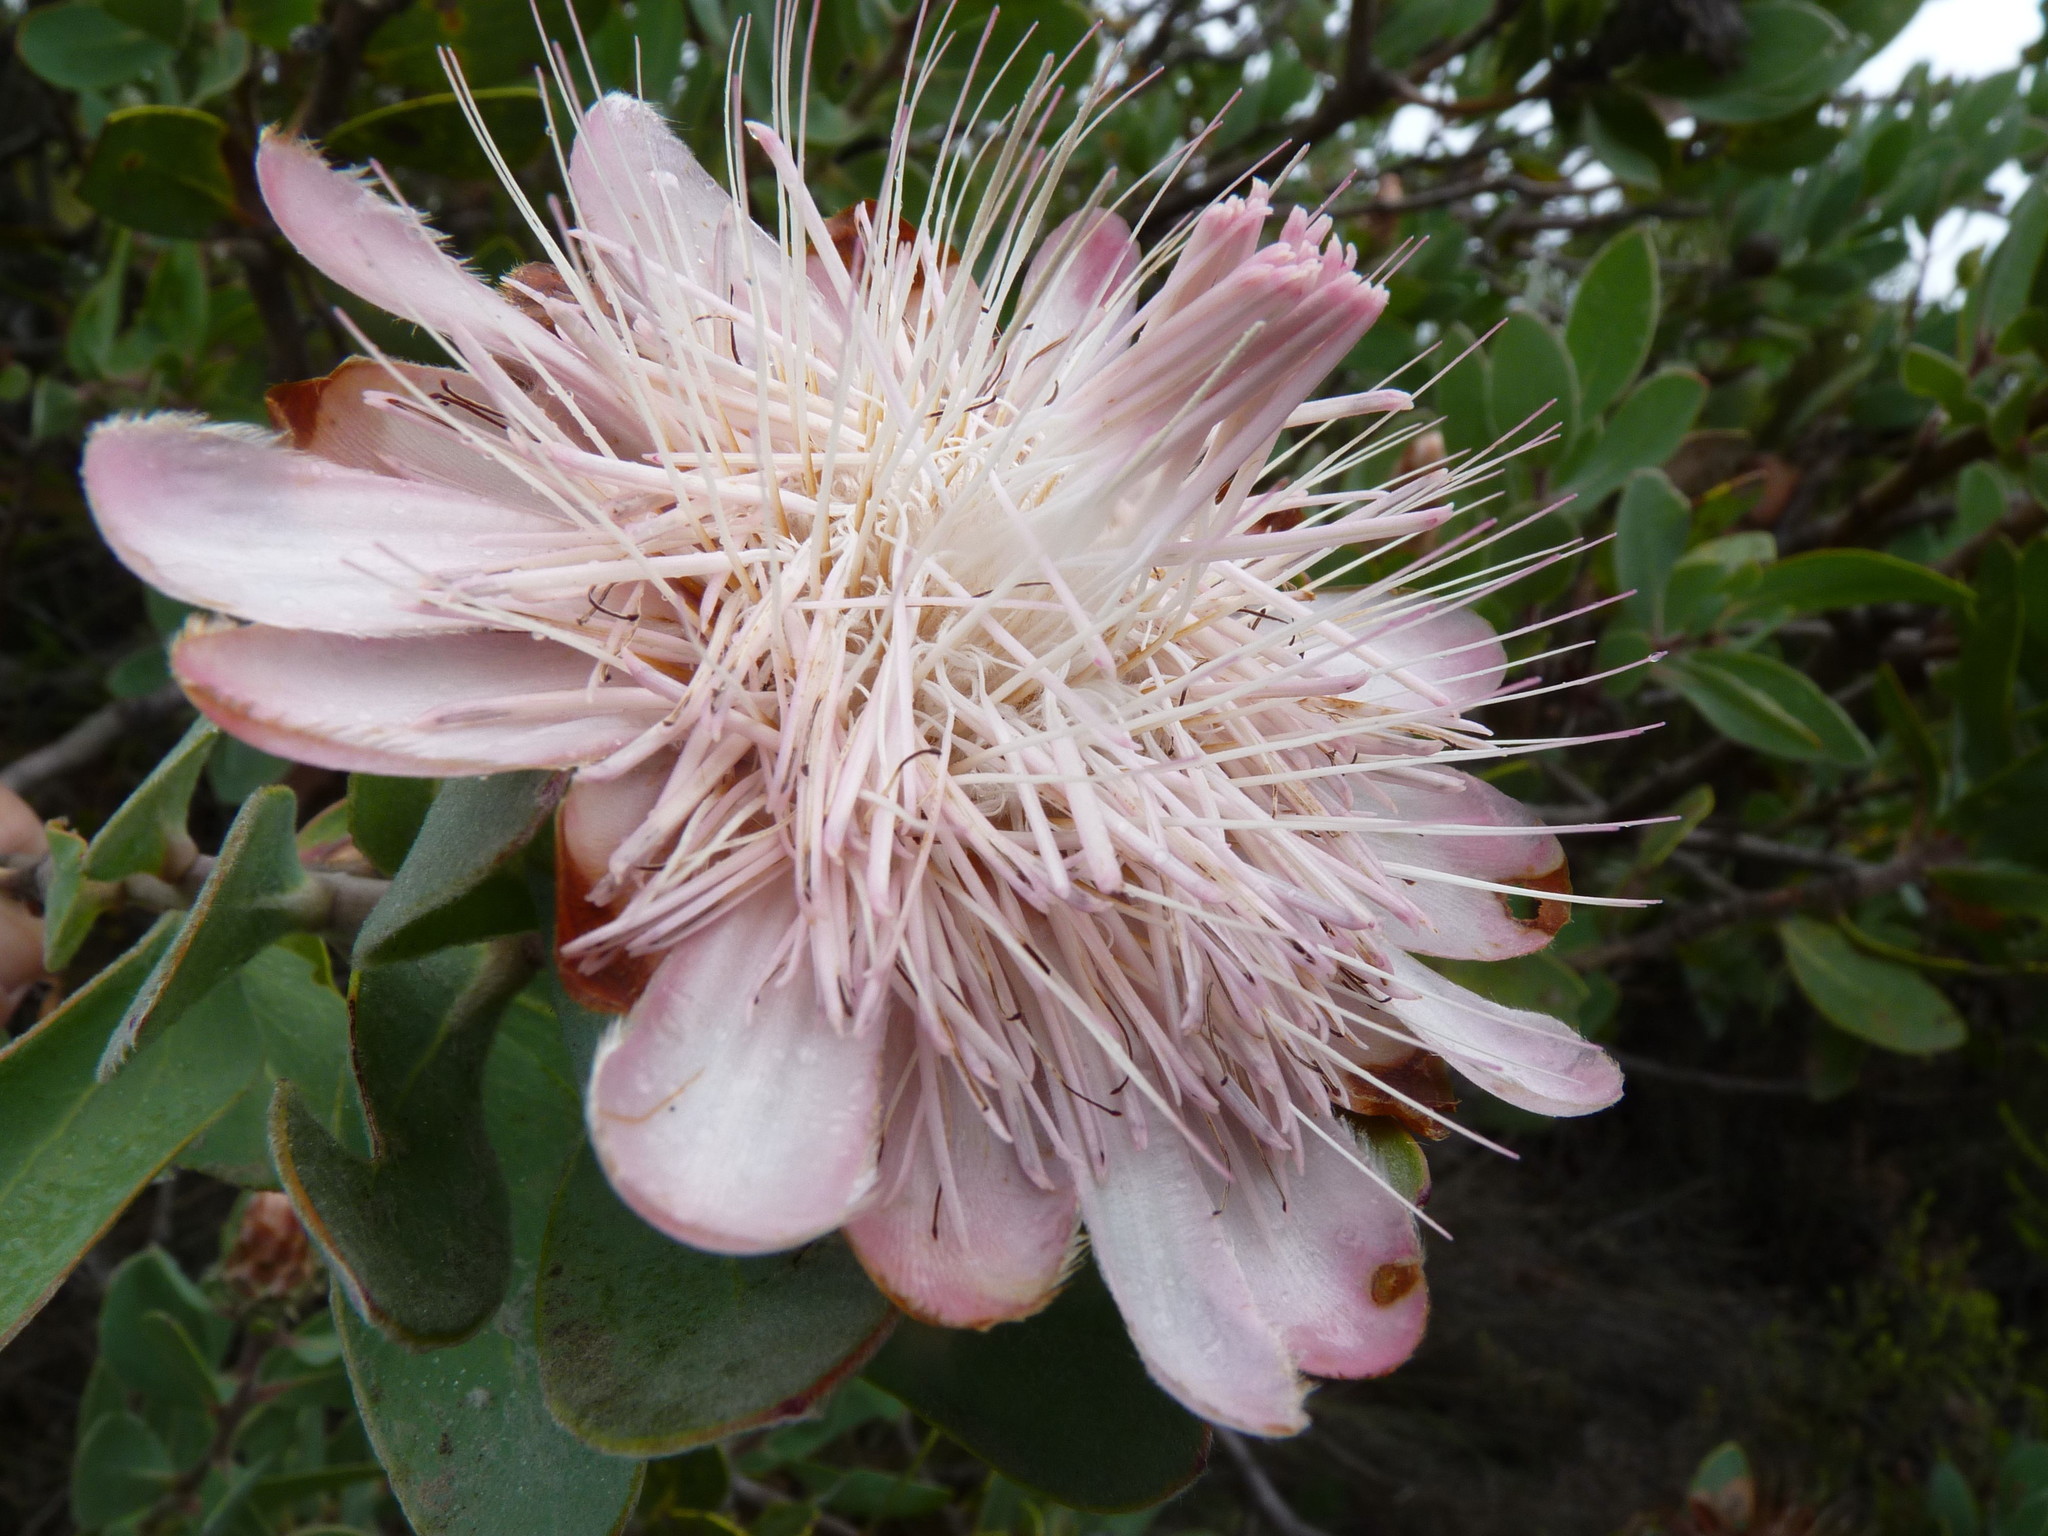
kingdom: Plantae
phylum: Tracheophyta
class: Magnoliopsida
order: Proteales
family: Proteaceae
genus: Protea
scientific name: Protea punctata
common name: Water sugarbush
